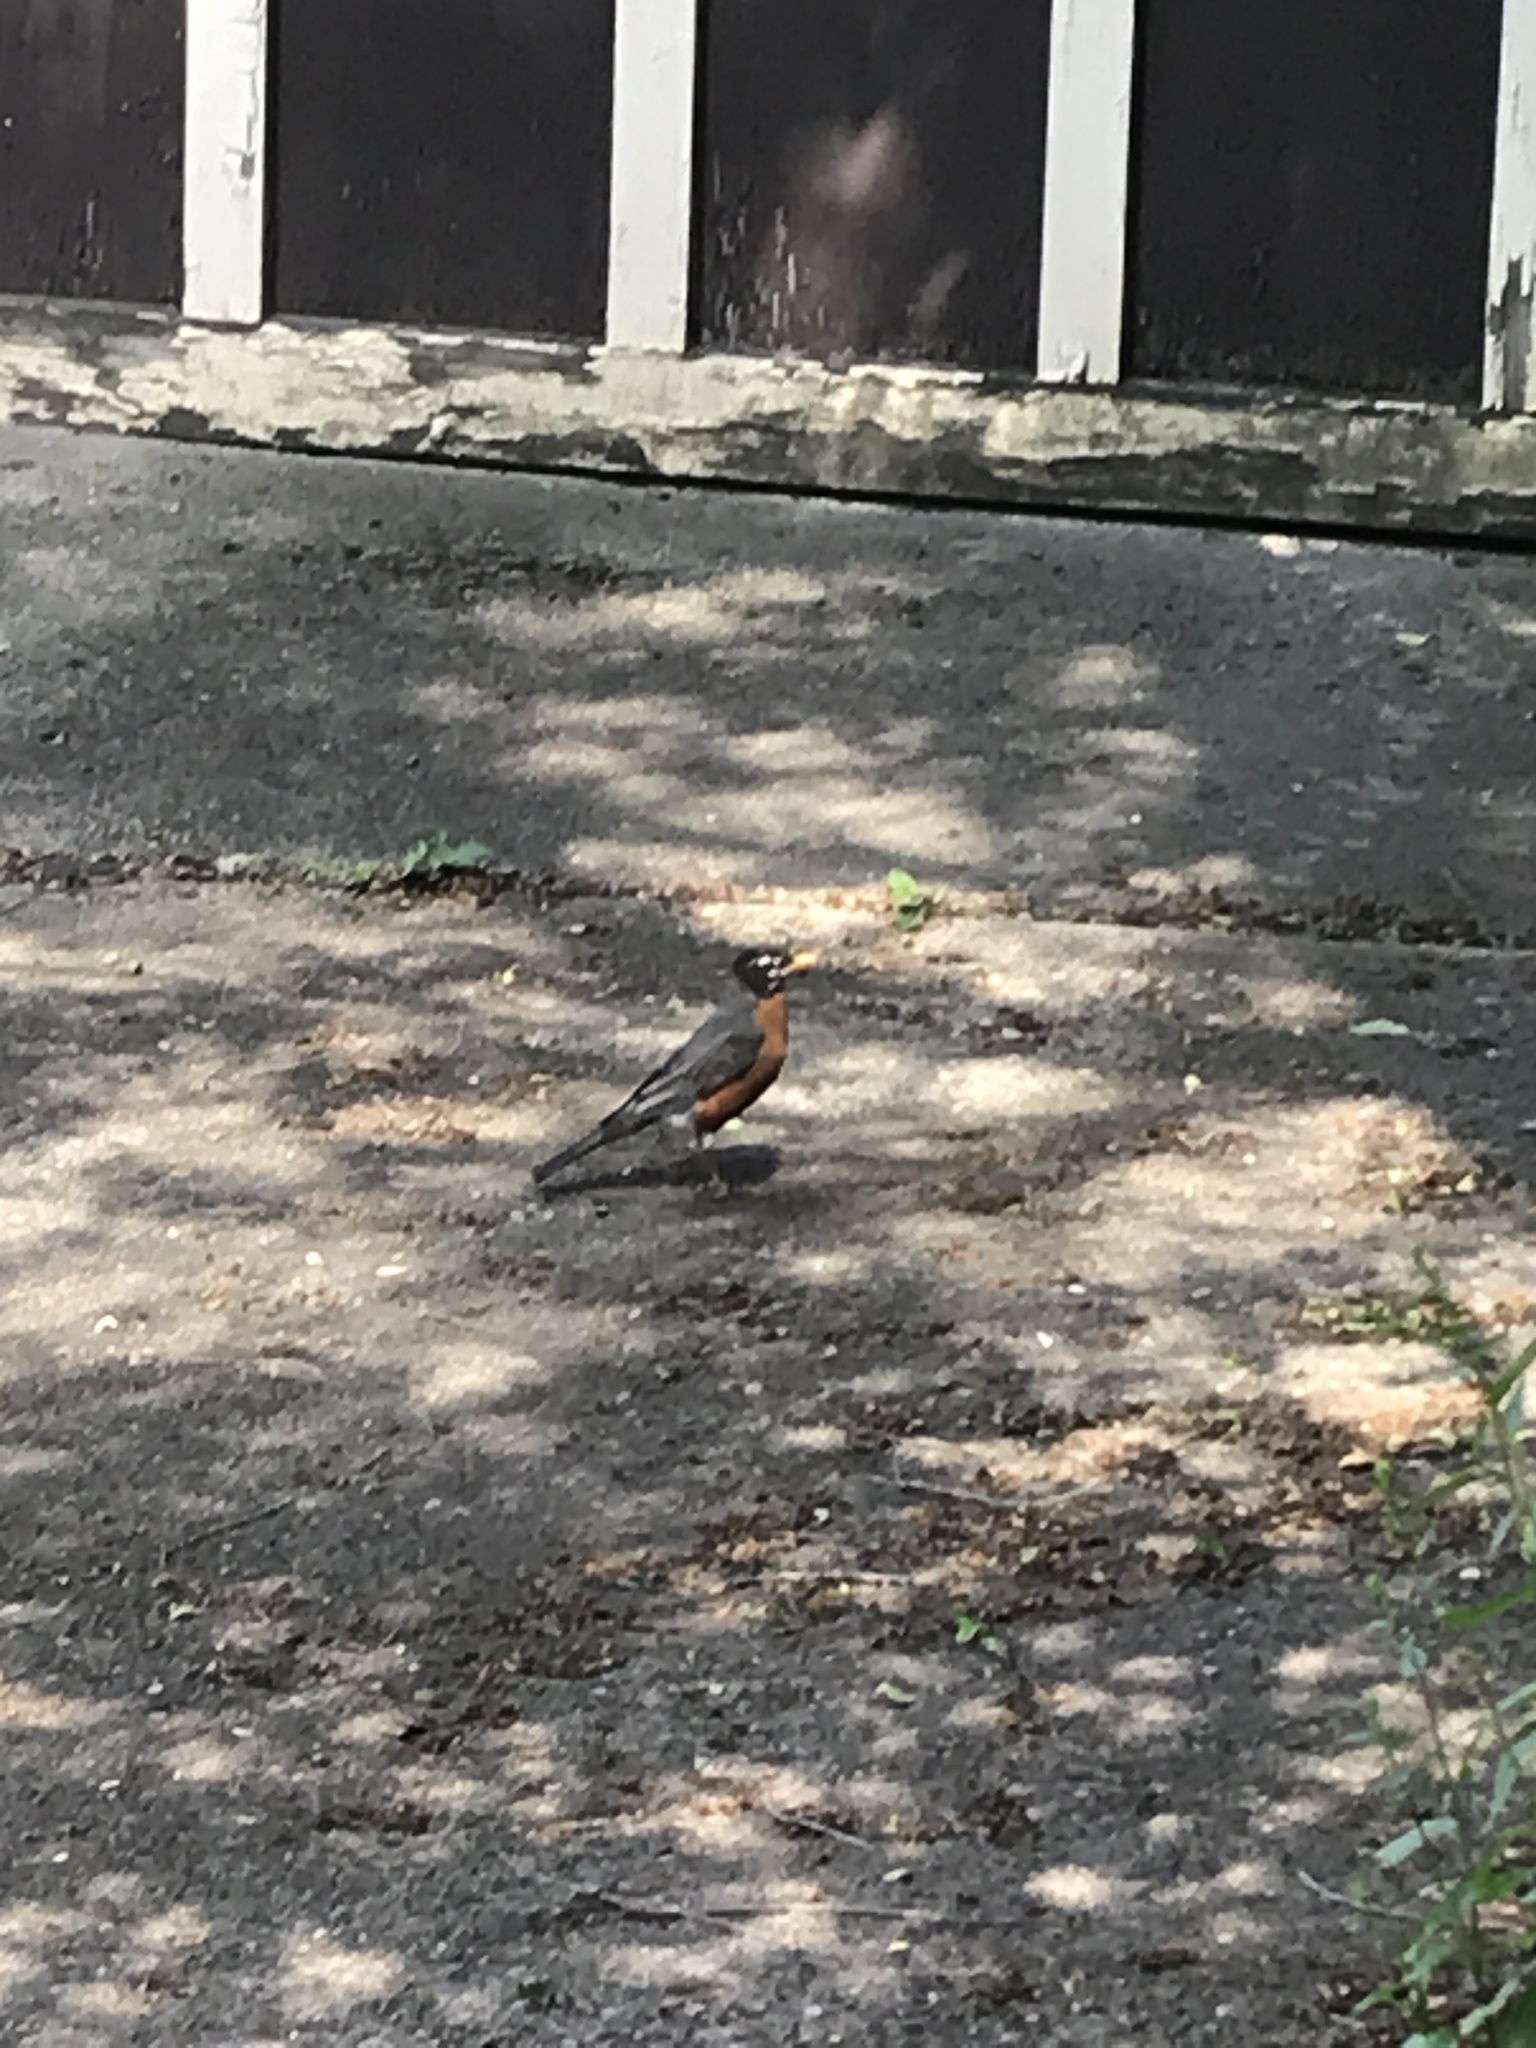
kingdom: Animalia
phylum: Chordata
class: Aves
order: Passeriformes
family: Turdidae
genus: Turdus
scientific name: Turdus migratorius
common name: American robin
